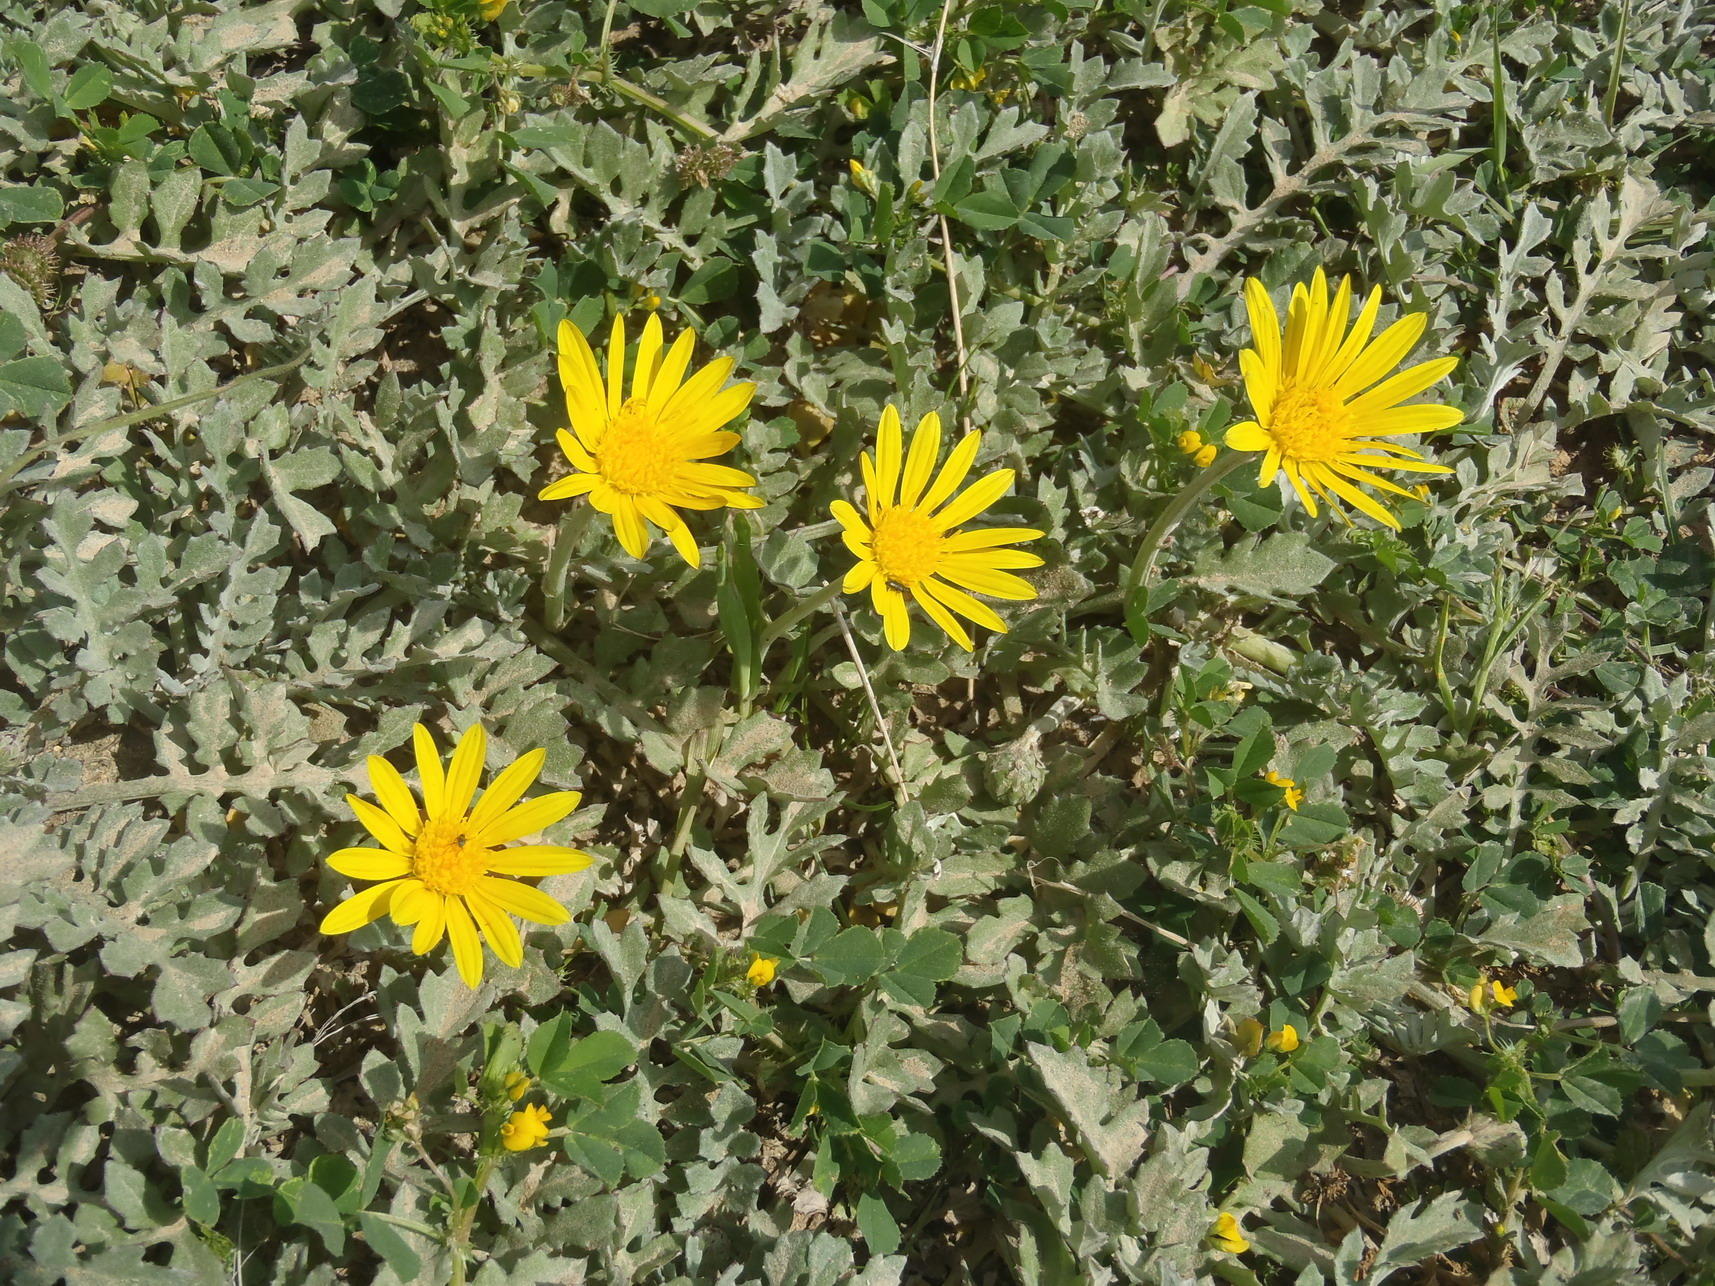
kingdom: Plantae
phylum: Tracheophyta
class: Magnoliopsida
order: Asterales
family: Asteraceae
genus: Arctotheca
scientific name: Arctotheca prostrata
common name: Capeweed
